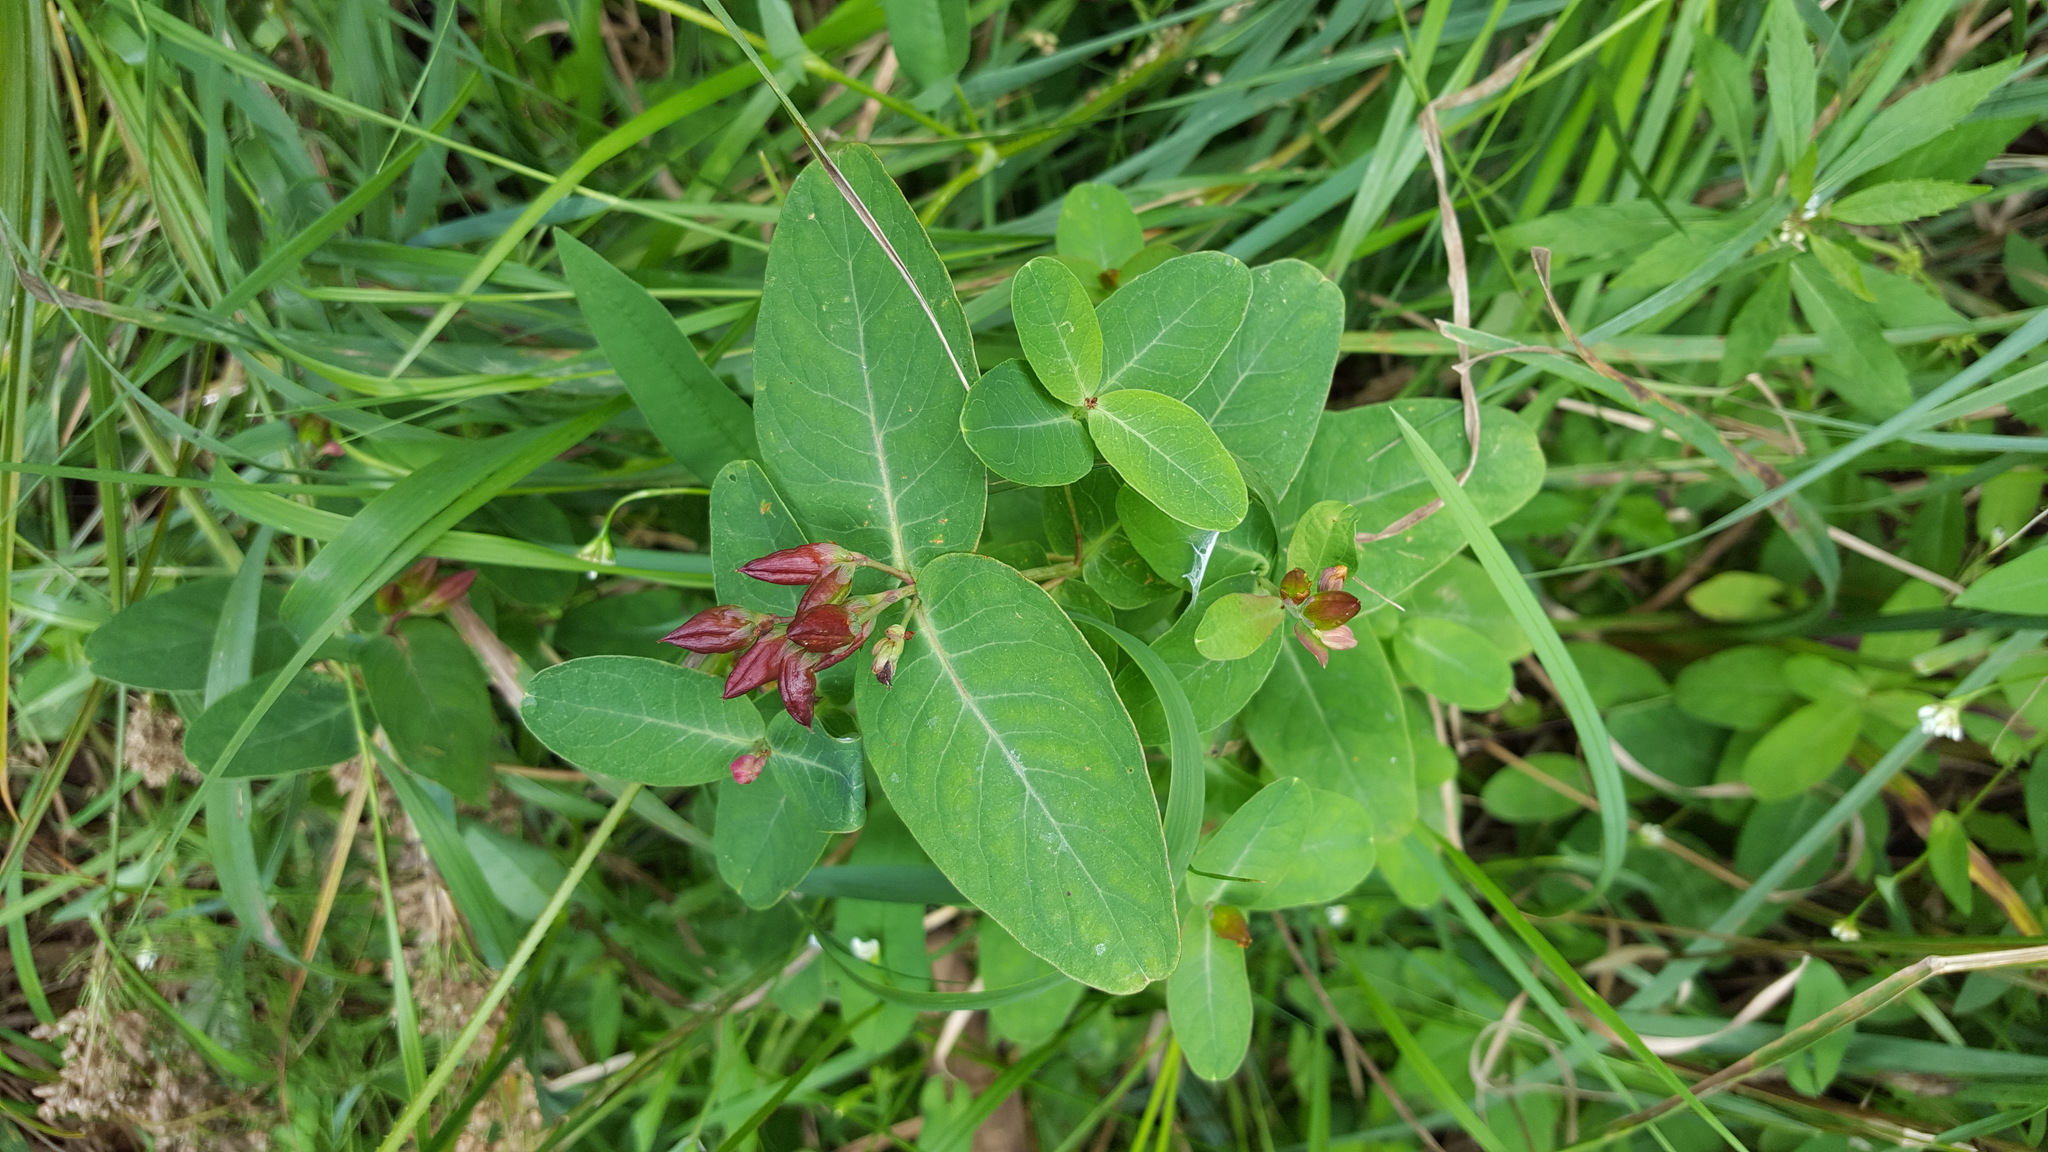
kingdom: Plantae
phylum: Tracheophyta
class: Magnoliopsida
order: Malpighiales
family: Hypericaceae
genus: Triadenum
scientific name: Triadenum fraseri
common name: Fraser's marsh st. johnswort
